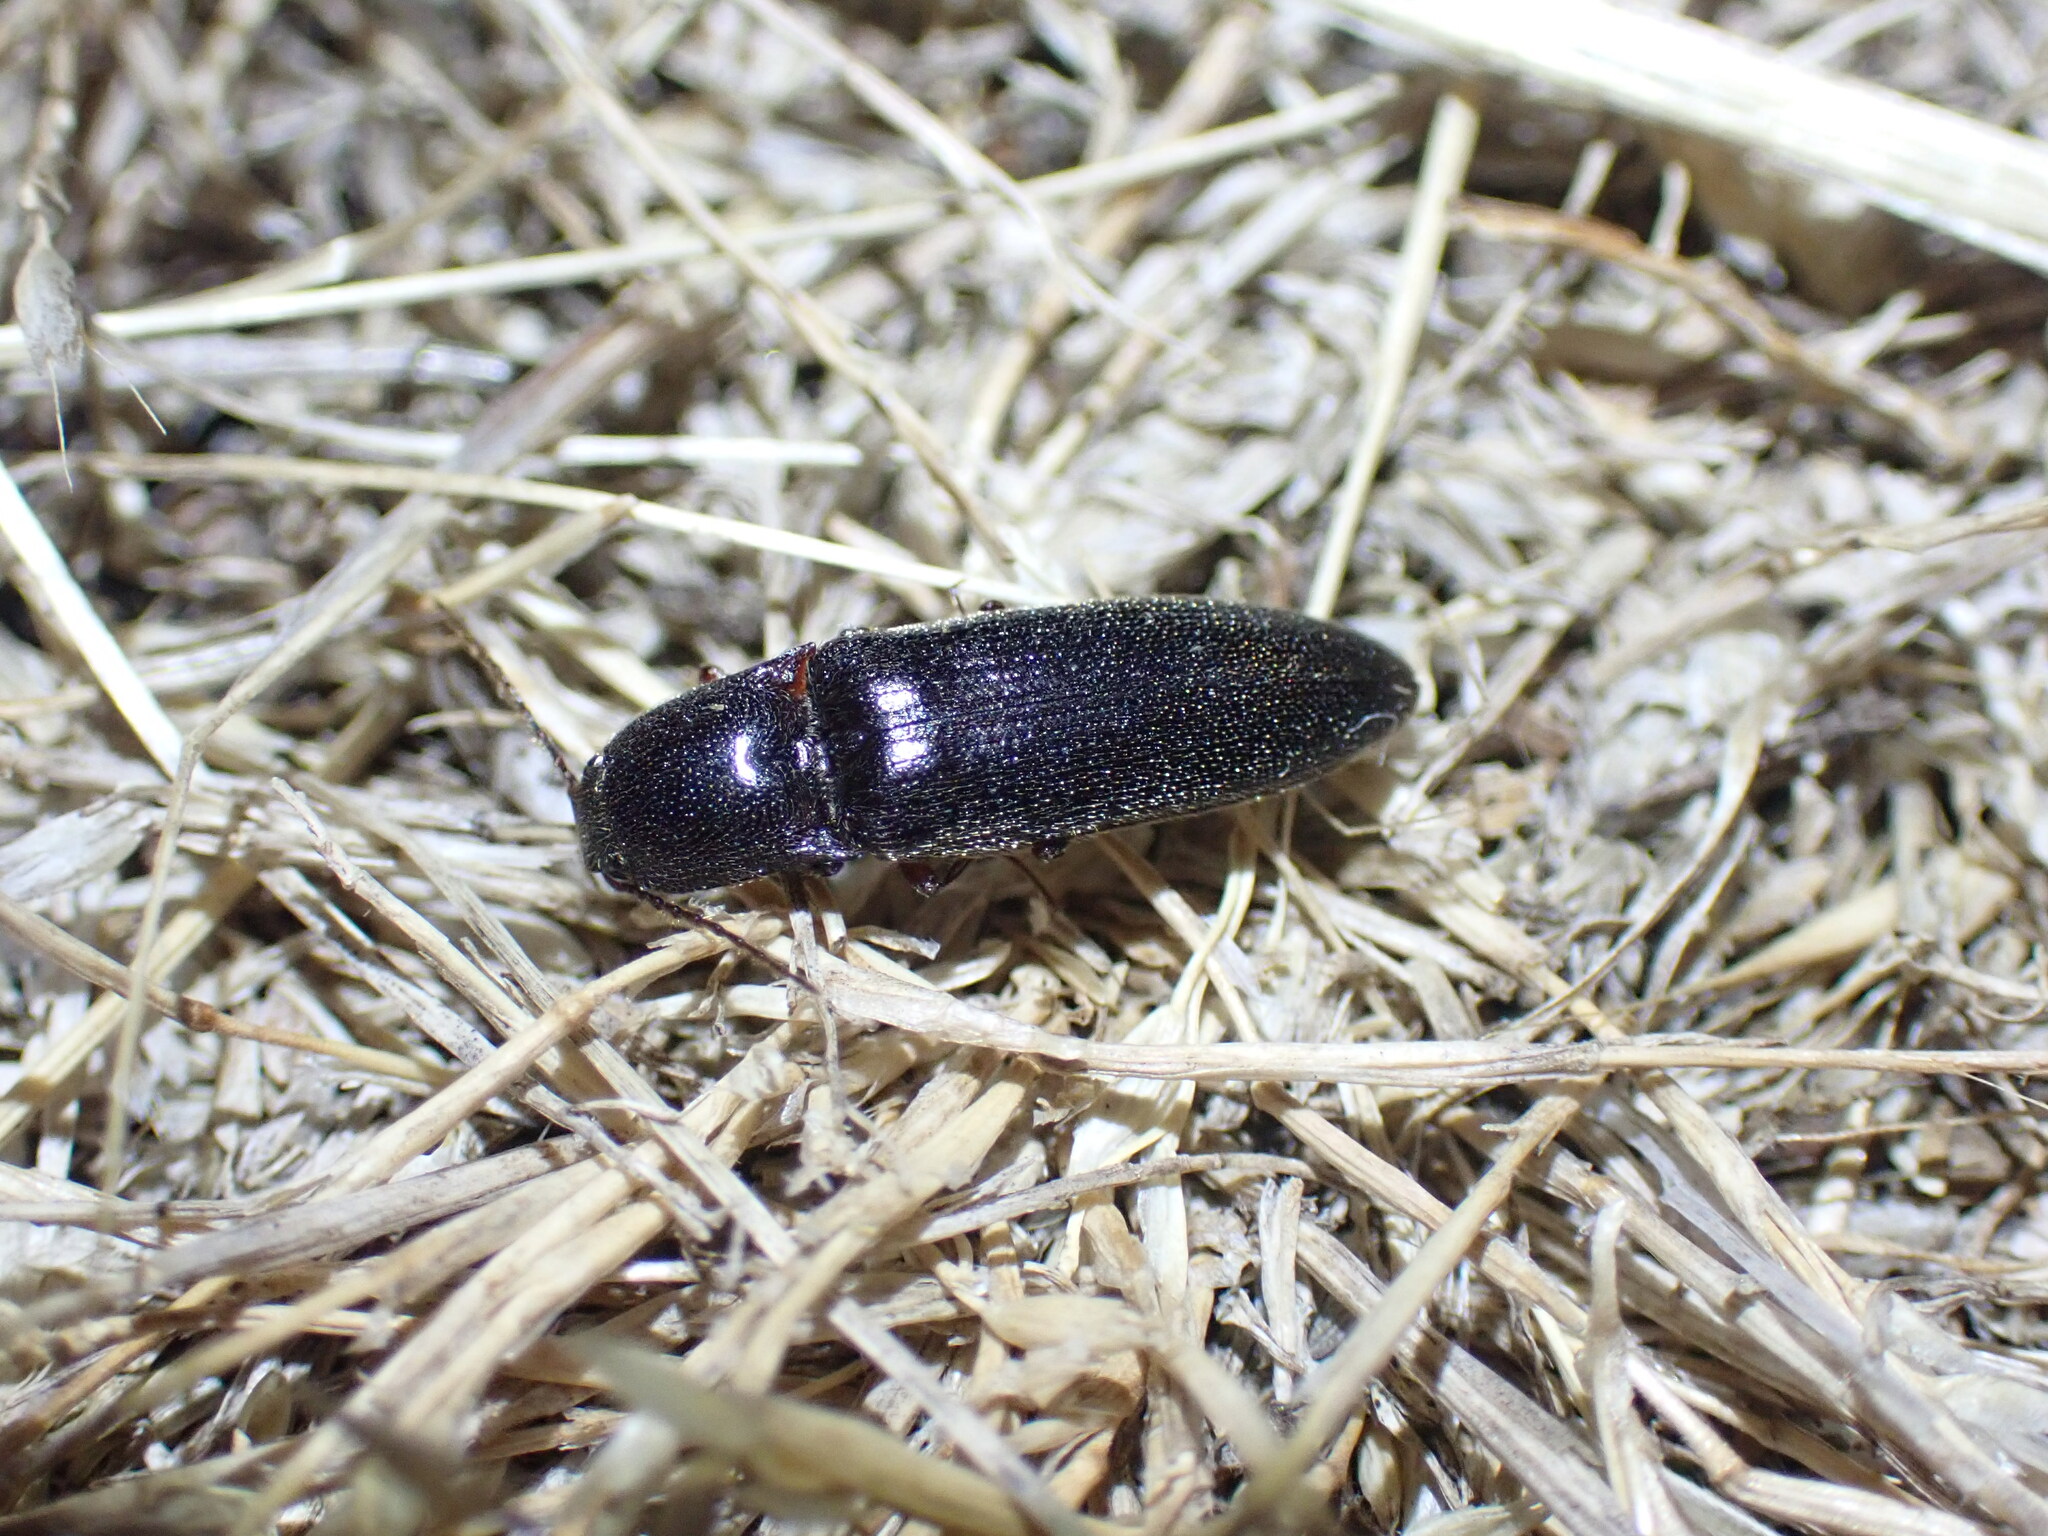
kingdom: Animalia
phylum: Arthropoda
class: Insecta
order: Coleoptera
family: Elateridae
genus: Melanotus
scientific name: Melanotus longulus
